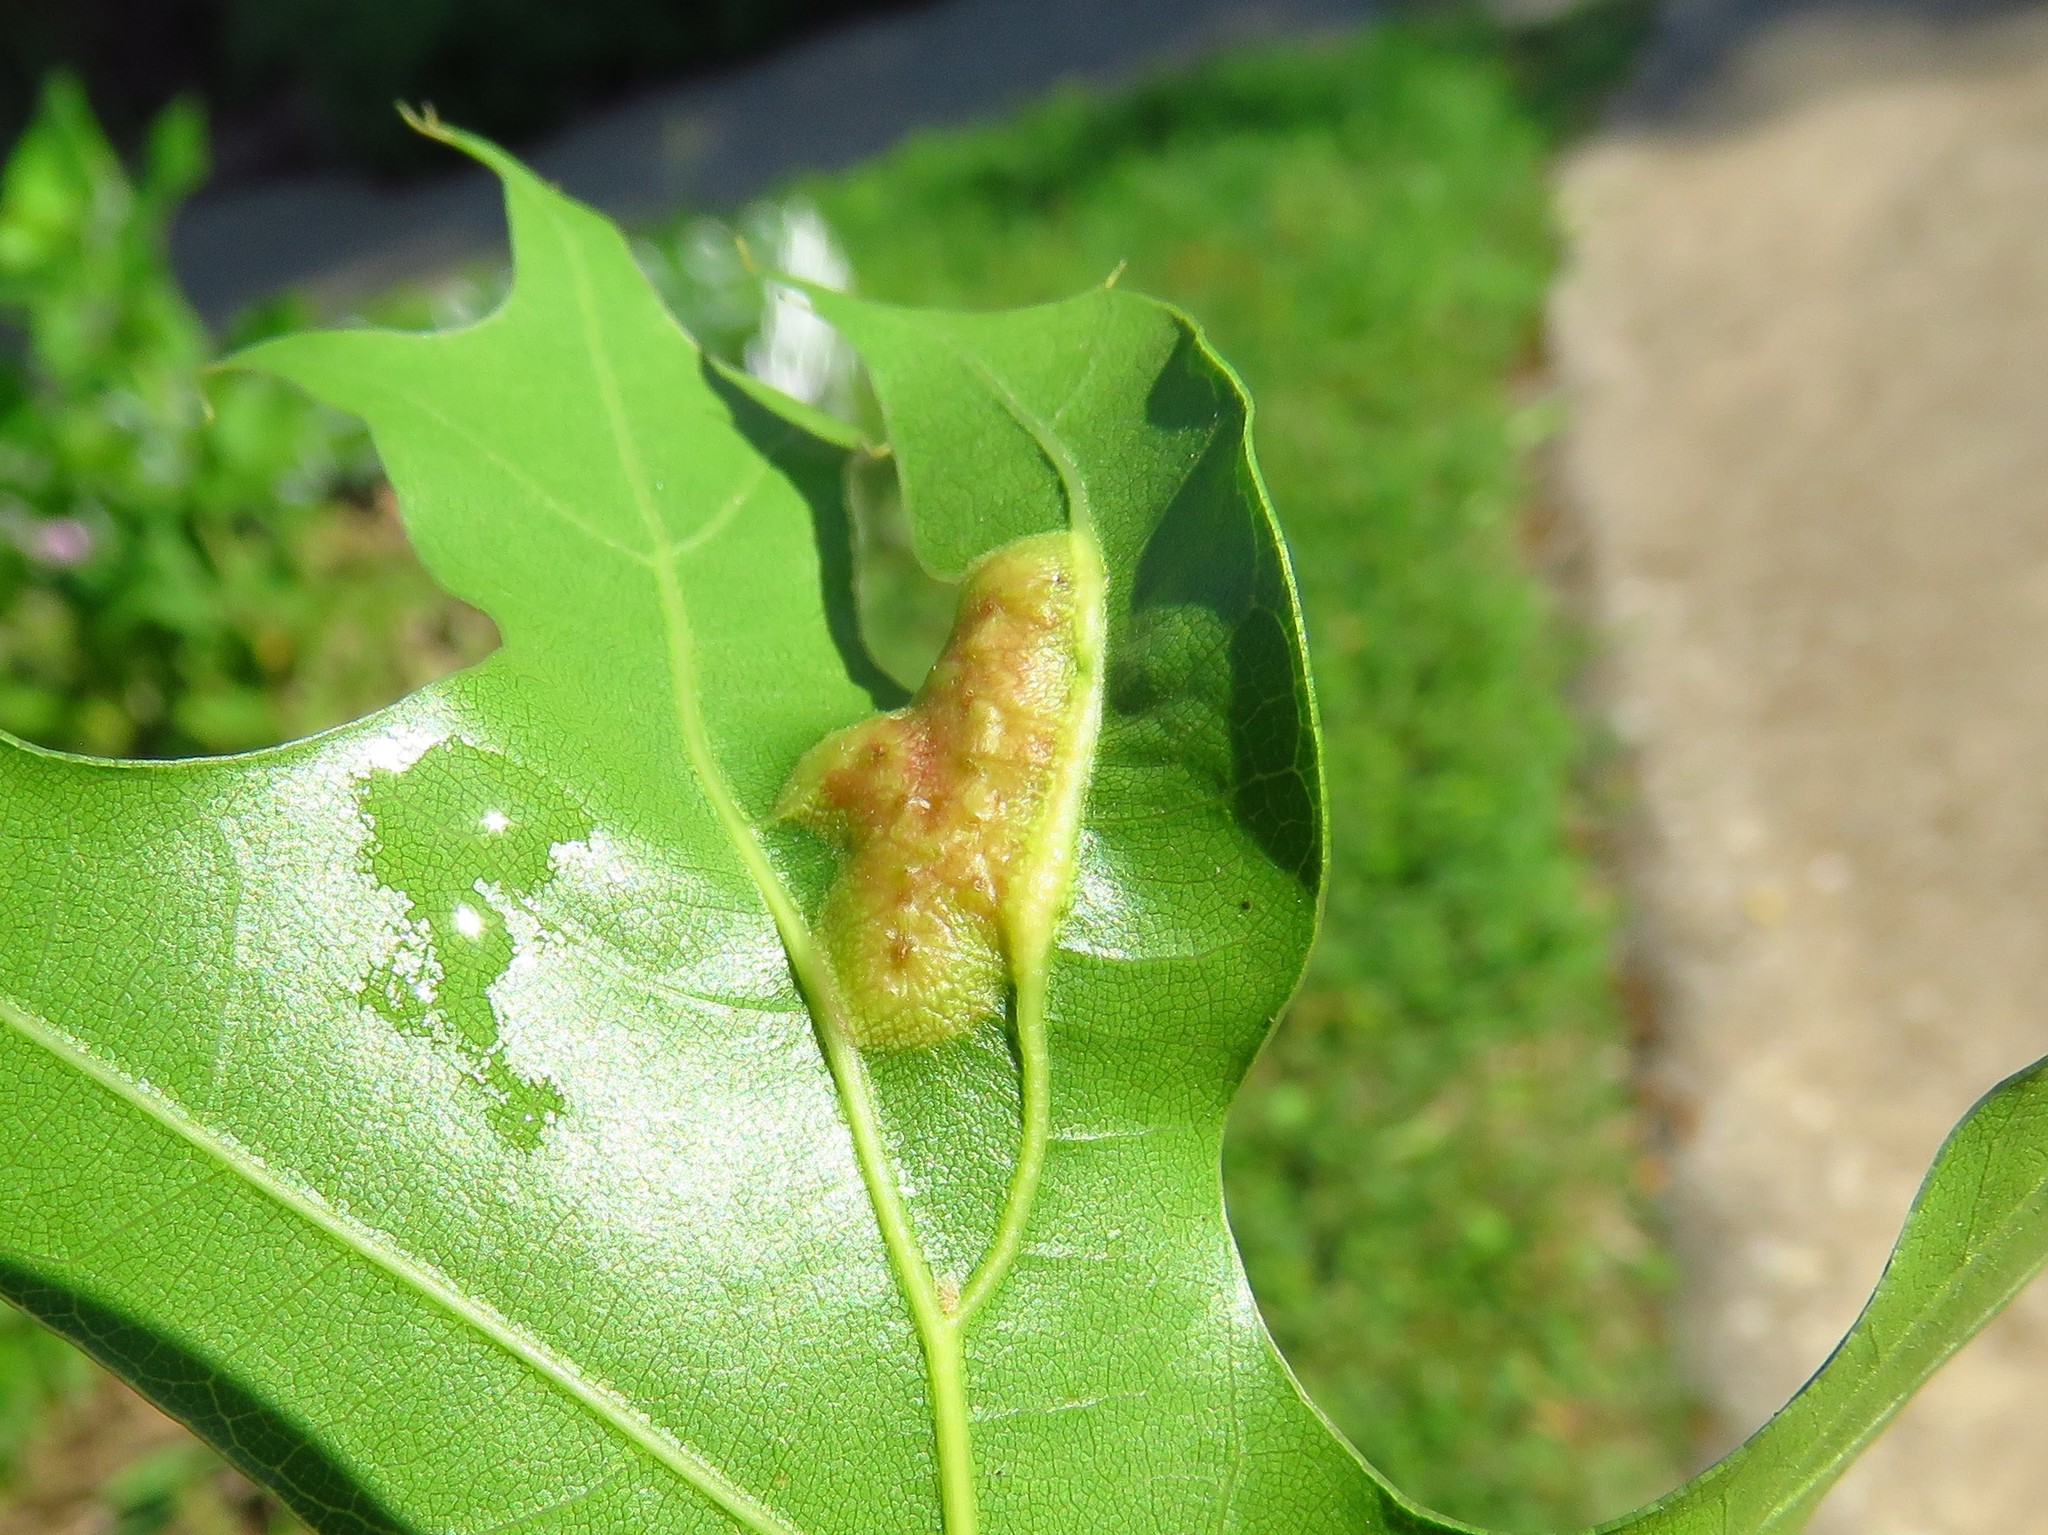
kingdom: Animalia
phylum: Arthropoda
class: Insecta
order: Diptera
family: Cecidomyiidae
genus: Polystepha
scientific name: Polystepha pilulae
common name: Oak leaf gall midge
